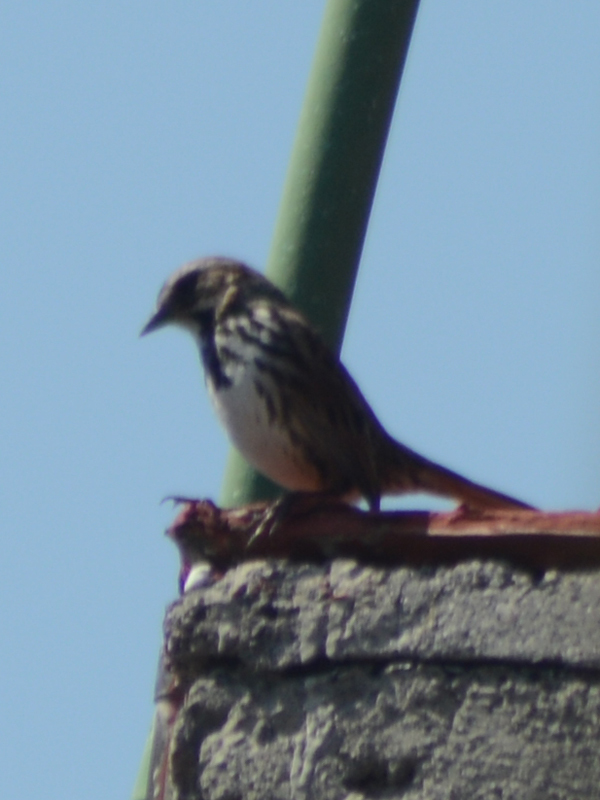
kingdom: Animalia
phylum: Chordata
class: Aves
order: Passeriformes
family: Passerellidae
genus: Melospiza
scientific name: Melospiza melodia
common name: Song sparrow
